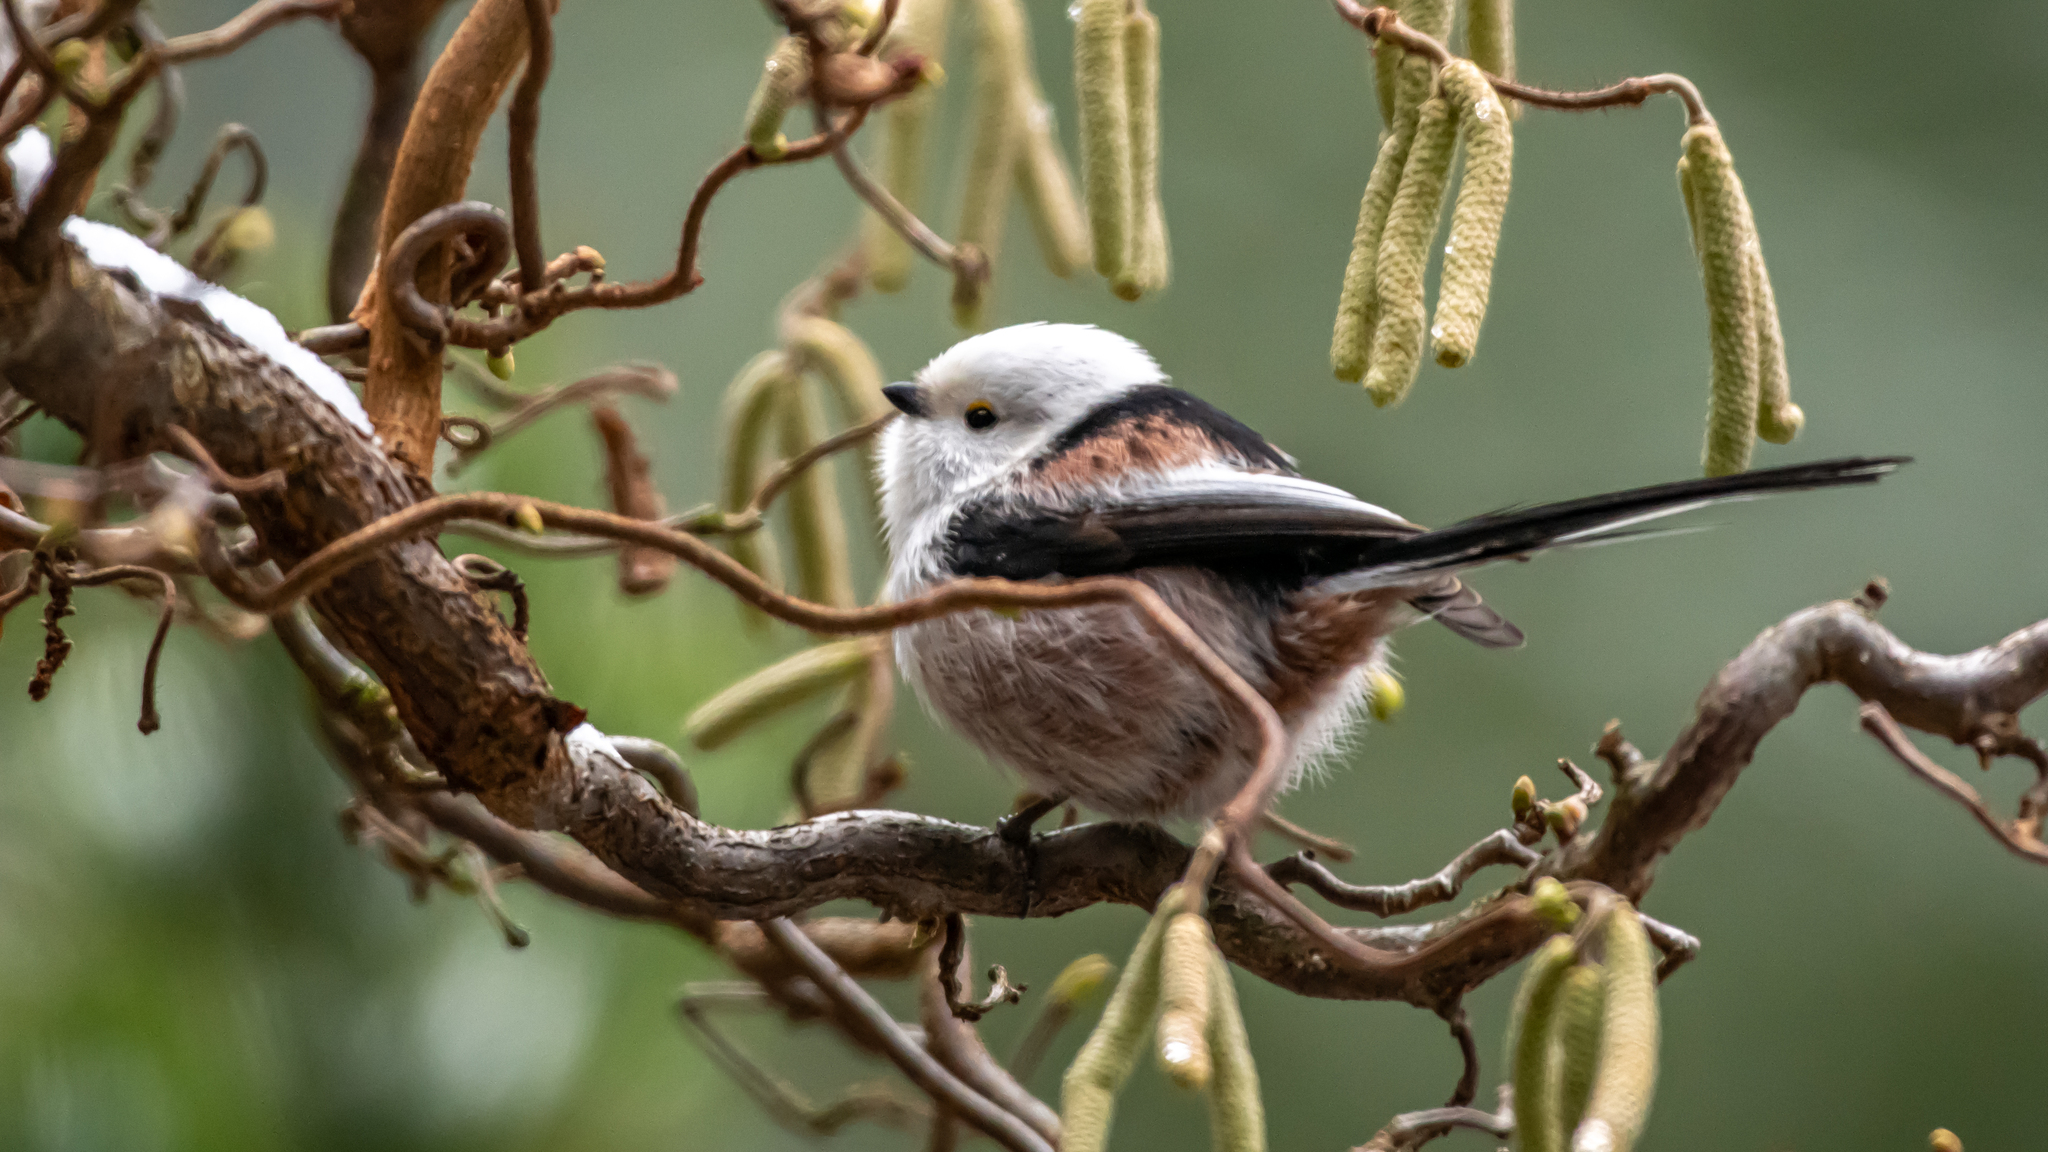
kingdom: Animalia
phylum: Chordata
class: Aves
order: Passeriformes
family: Aegithalidae
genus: Aegithalos
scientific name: Aegithalos caudatus
